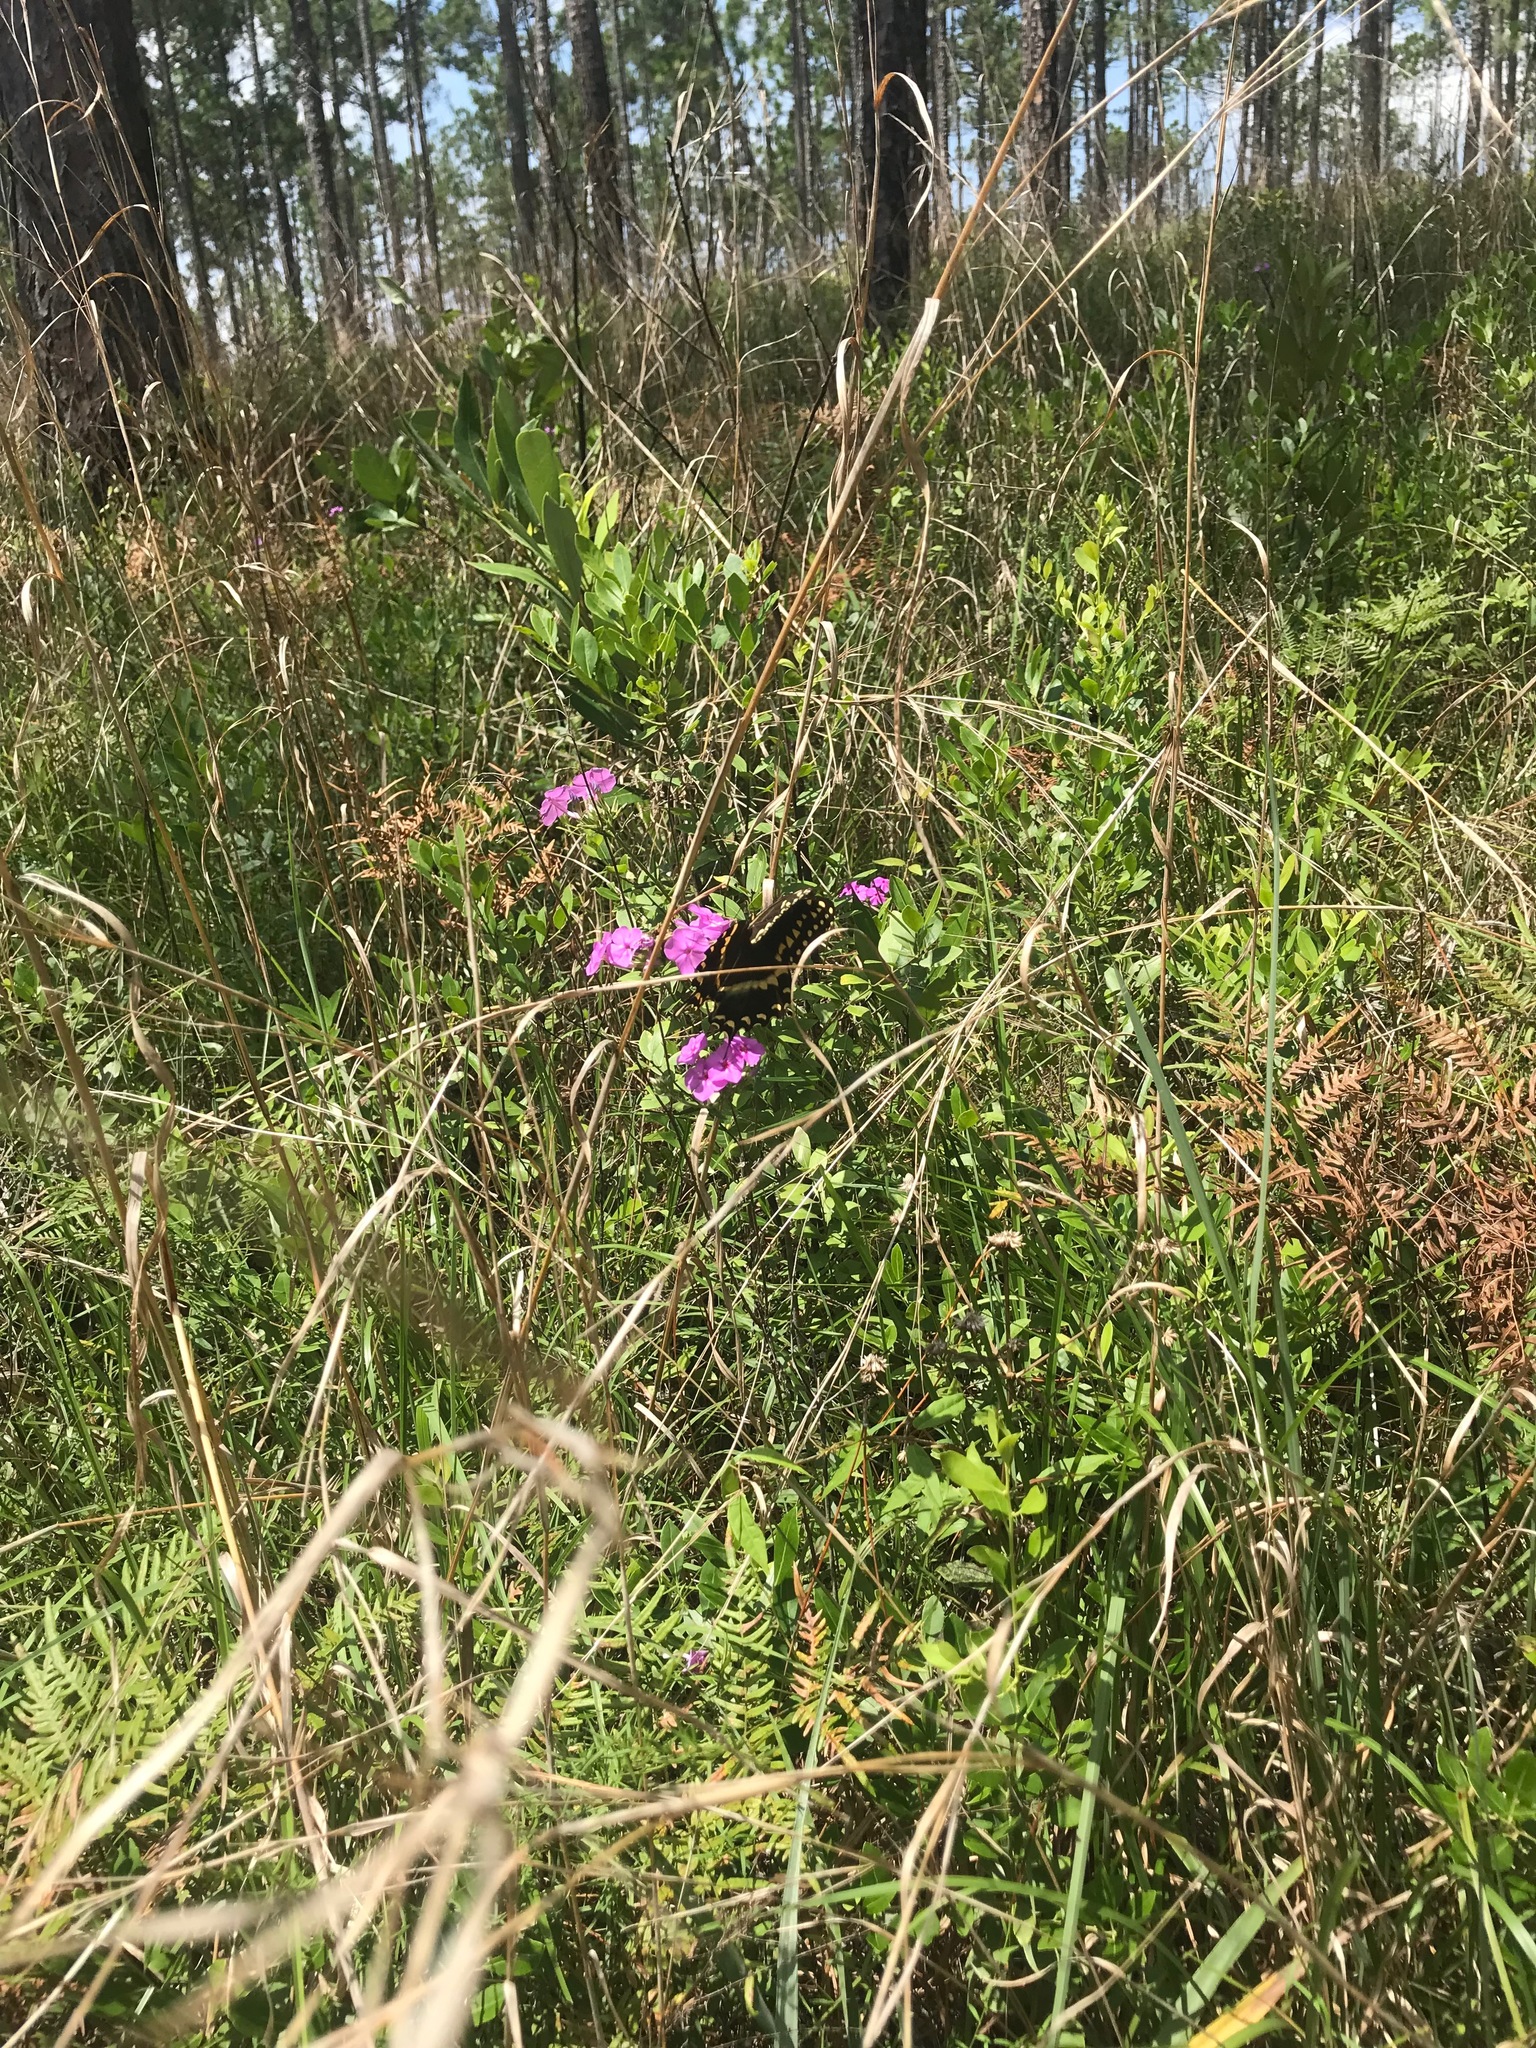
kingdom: Animalia
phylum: Arthropoda
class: Insecta
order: Lepidoptera
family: Papilionidae
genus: Papilio
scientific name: Papilio palamedes
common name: Palamedes swallowtail
